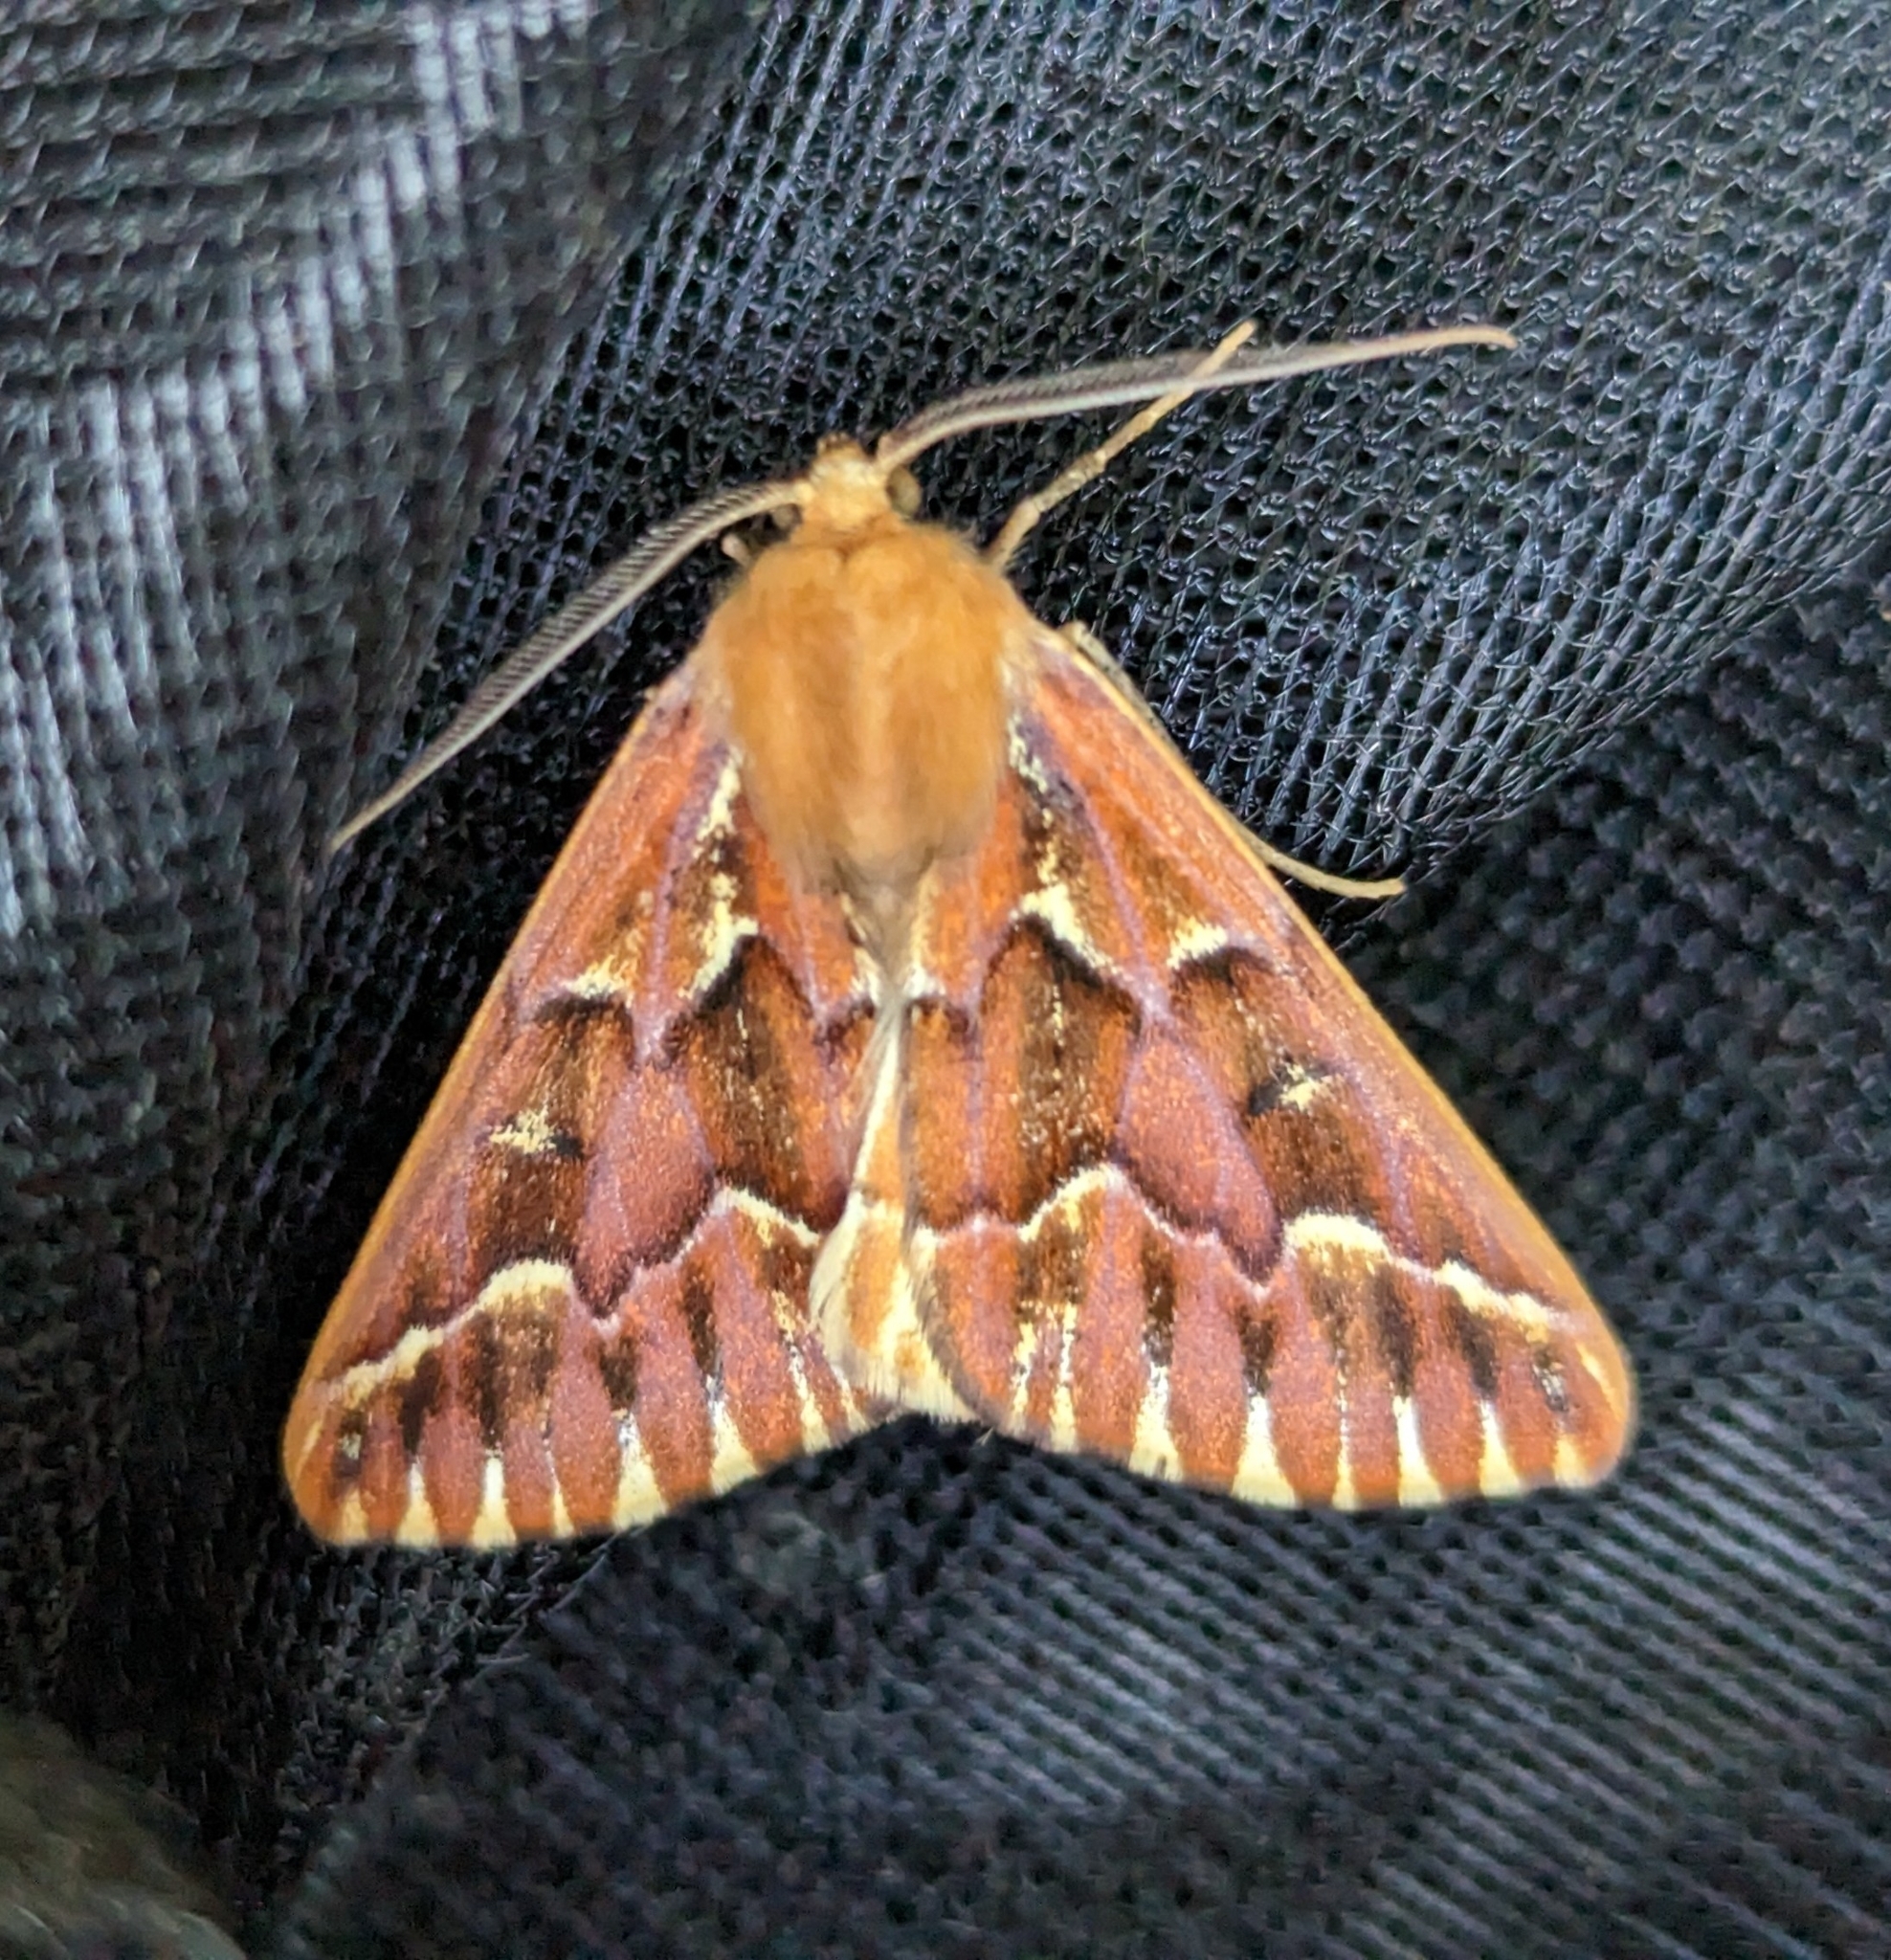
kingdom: Animalia
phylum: Arthropoda
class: Insecta
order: Lepidoptera
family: Geometridae
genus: Caripeta
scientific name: Caripeta aequaliaria
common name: Red girdle moth
